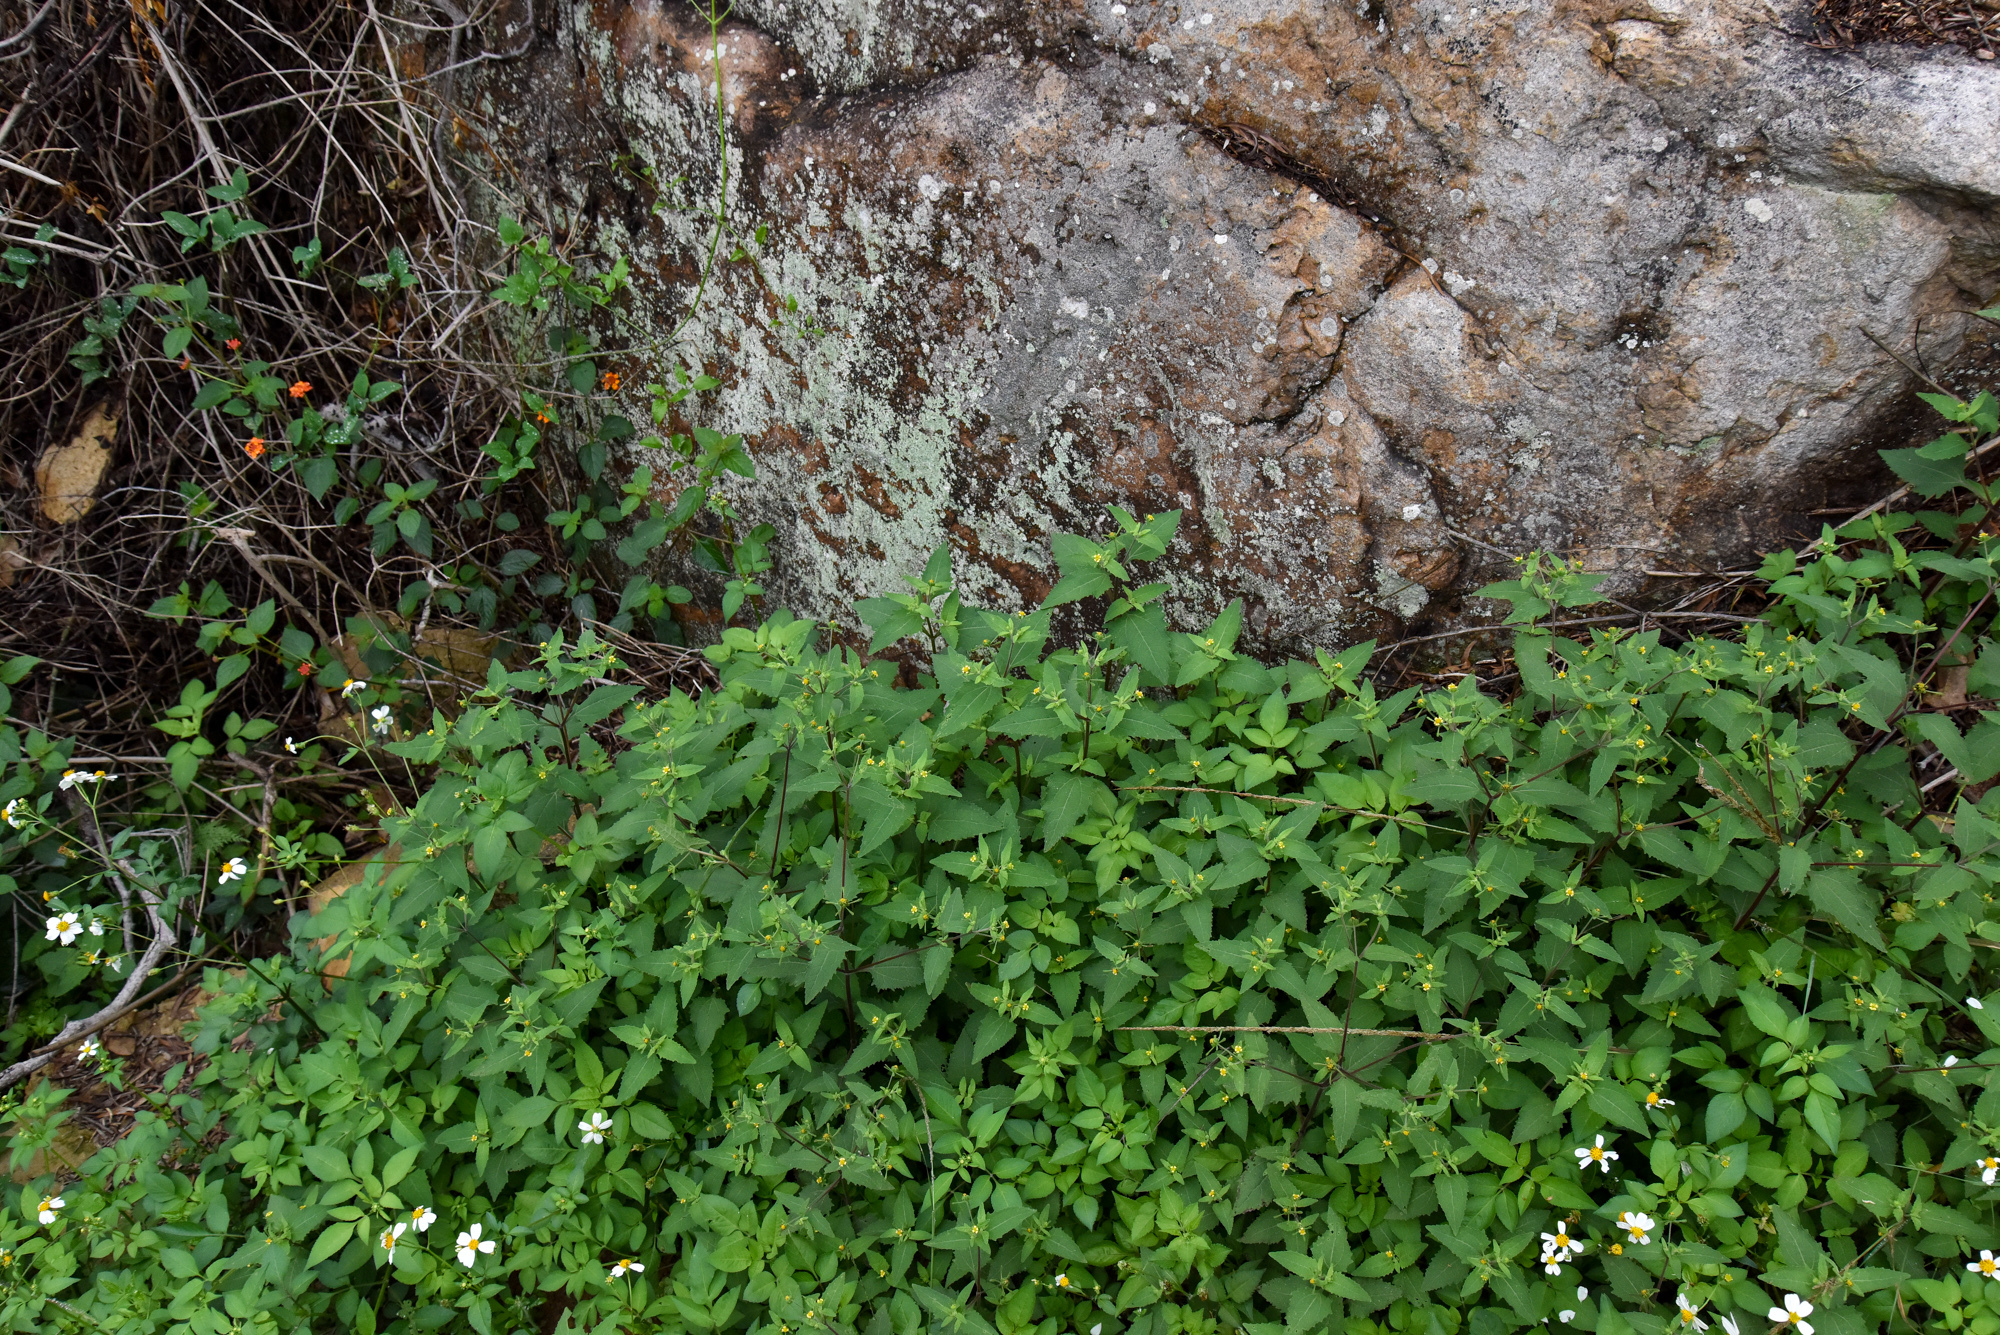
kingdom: Plantae
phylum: Tracheophyta
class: Magnoliopsida
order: Asterales
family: Asteraceae
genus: Sigesbeckia
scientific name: Sigesbeckia orientalis
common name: Eastern st paul's-wort
